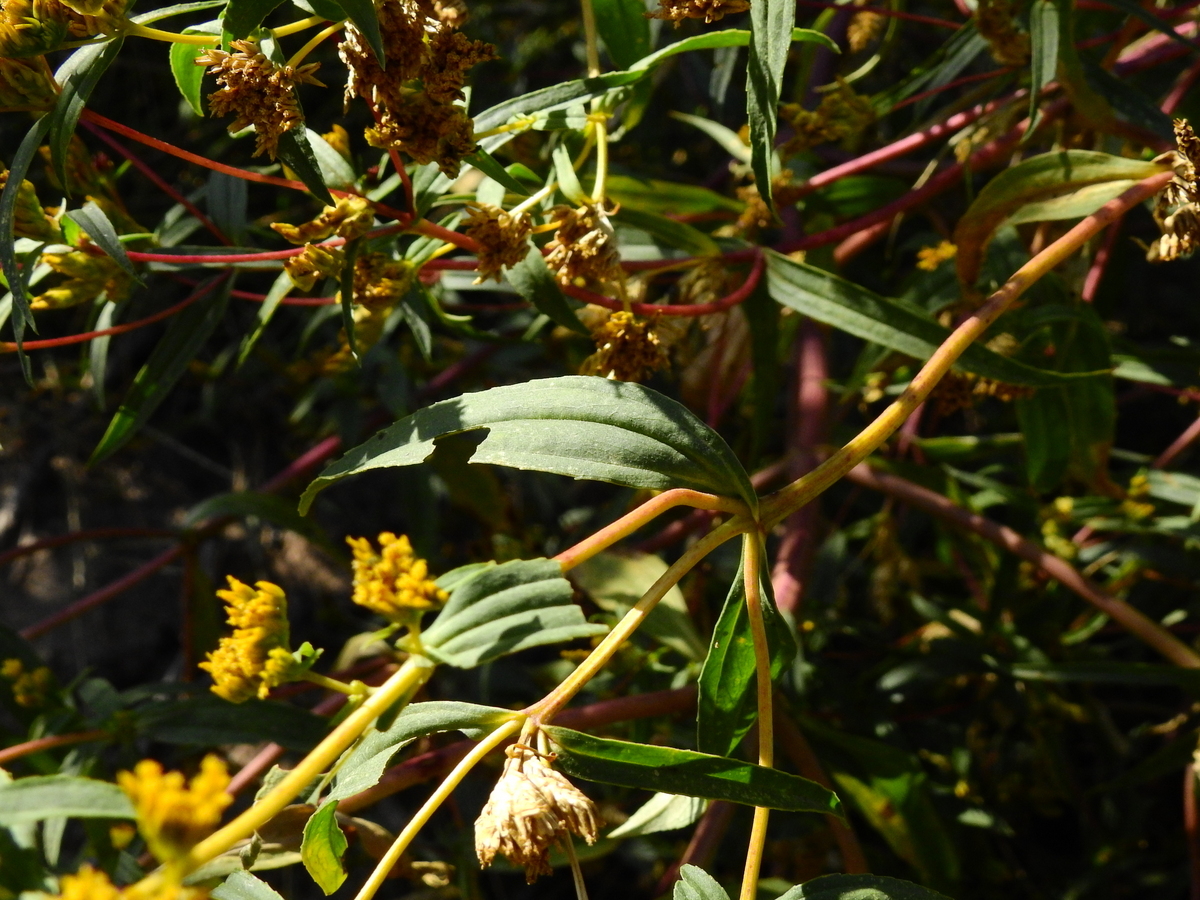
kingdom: Plantae
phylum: Tracheophyta
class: Magnoliopsida
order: Asterales
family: Asteraceae
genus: Flaveria
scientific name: Flaveria bidentis
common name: Coastal plain yellowtops
